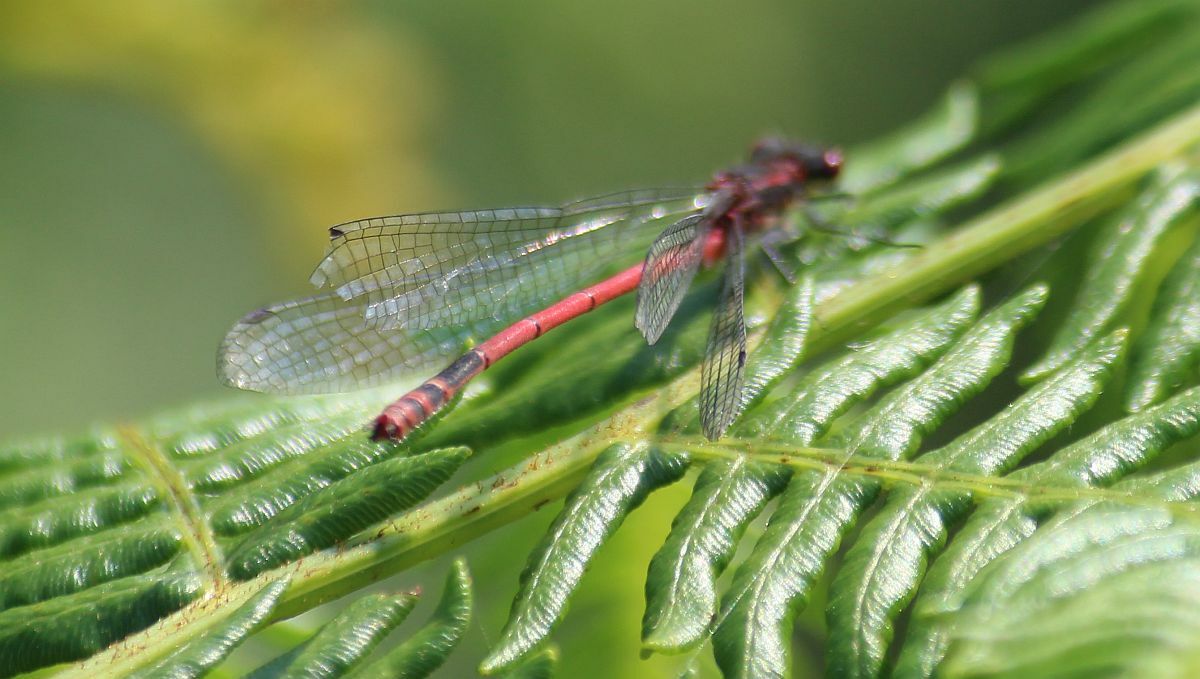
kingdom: Animalia
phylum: Arthropoda
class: Insecta
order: Odonata
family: Coenagrionidae
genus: Pyrrhosoma
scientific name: Pyrrhosoma nymphula
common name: Large red damsel
